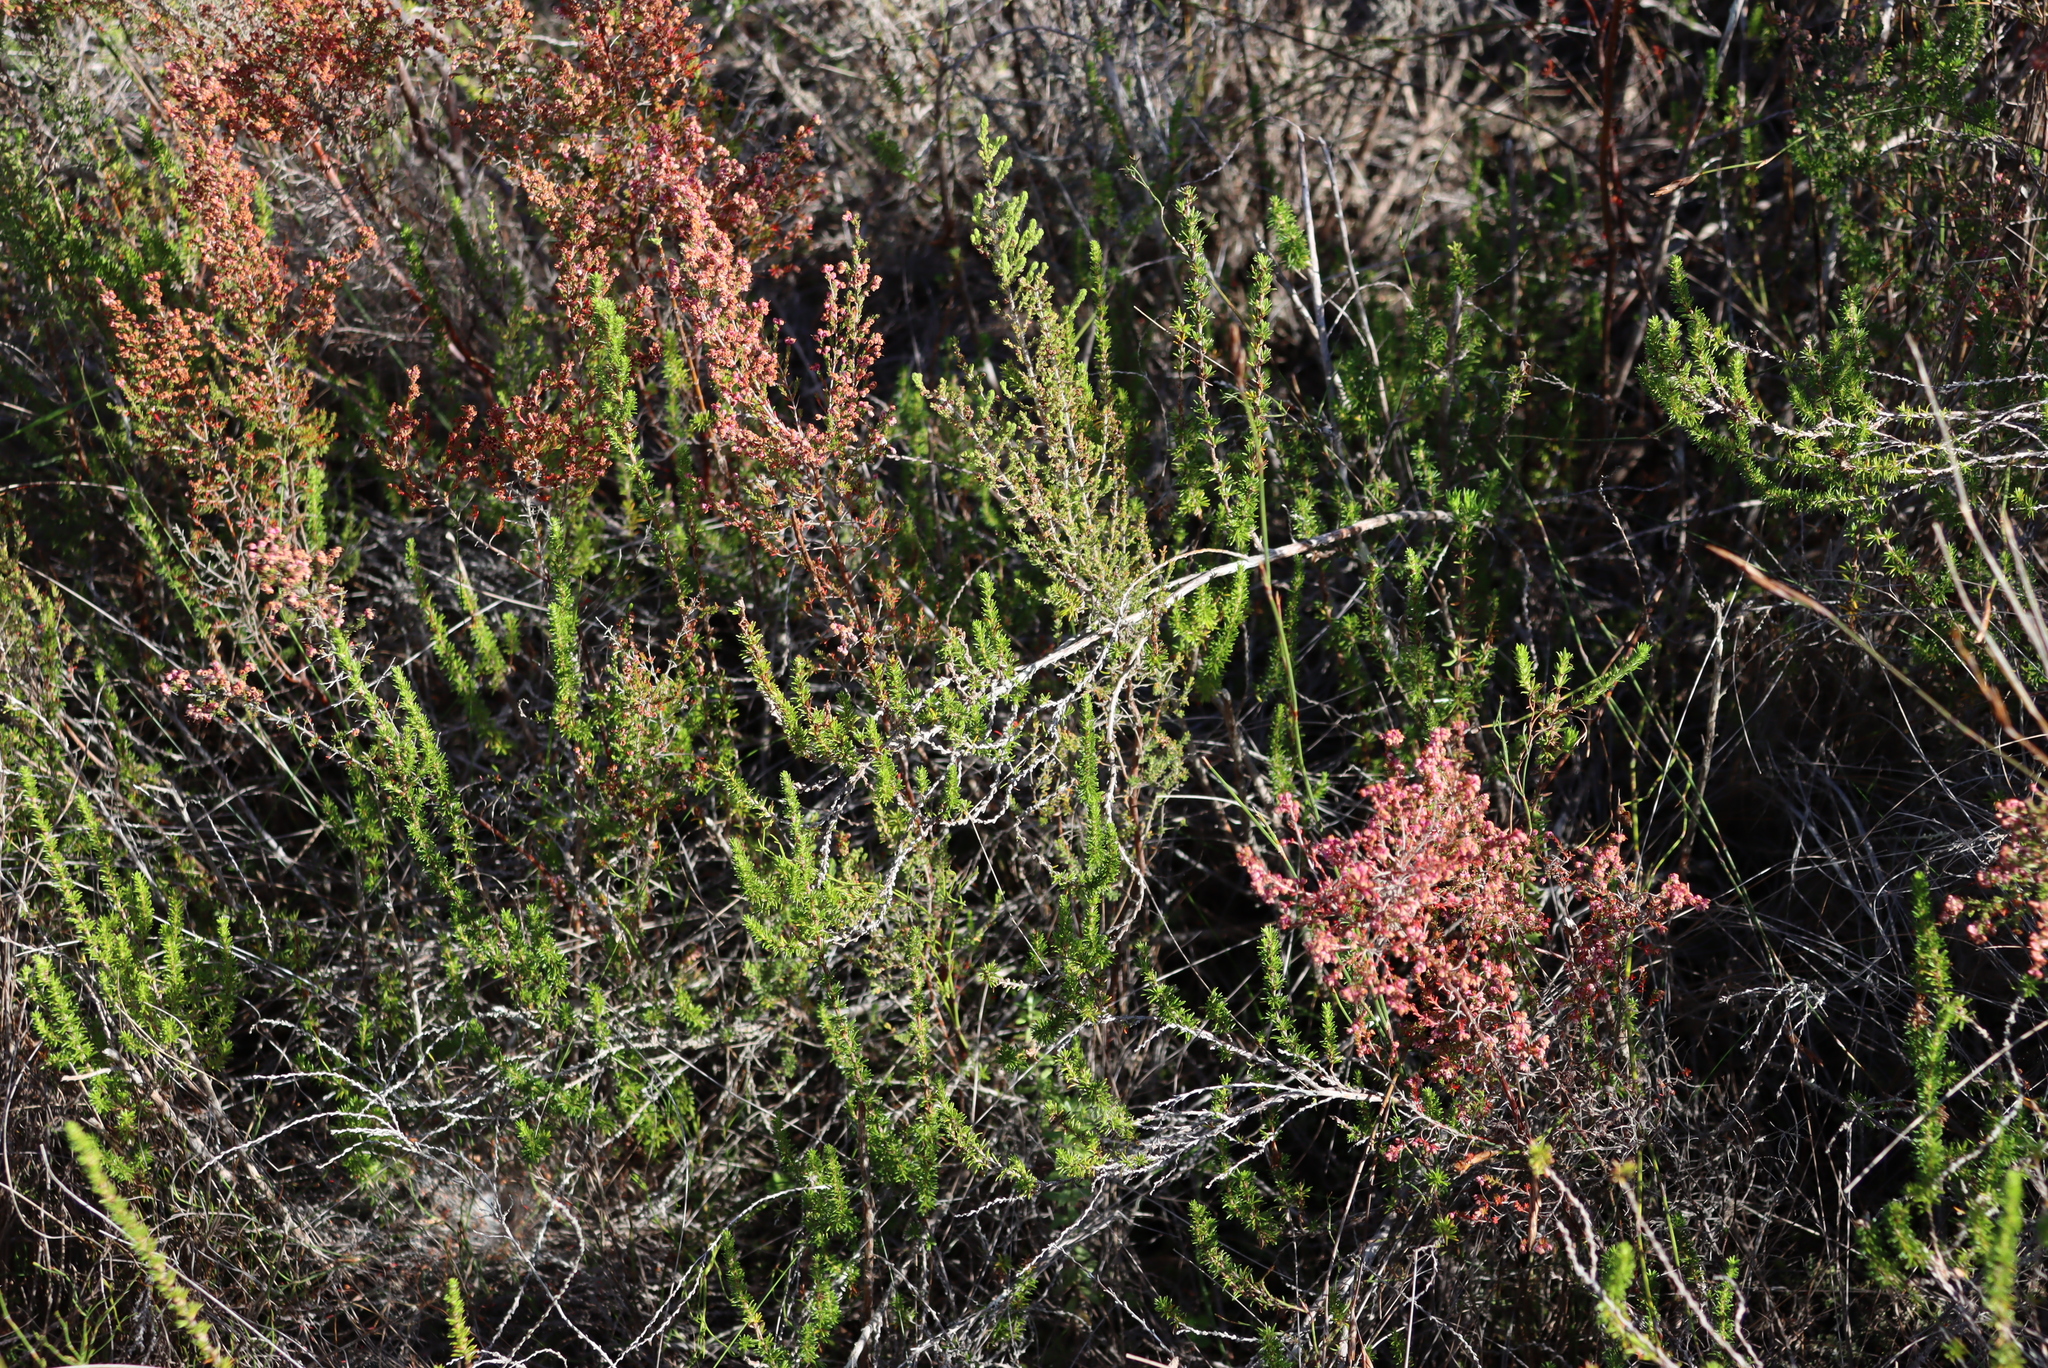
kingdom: Plantae
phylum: Tracheophyta
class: Magnoliopsida
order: Ericales
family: Ericaceae
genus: Erica
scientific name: Erica leucopelta
